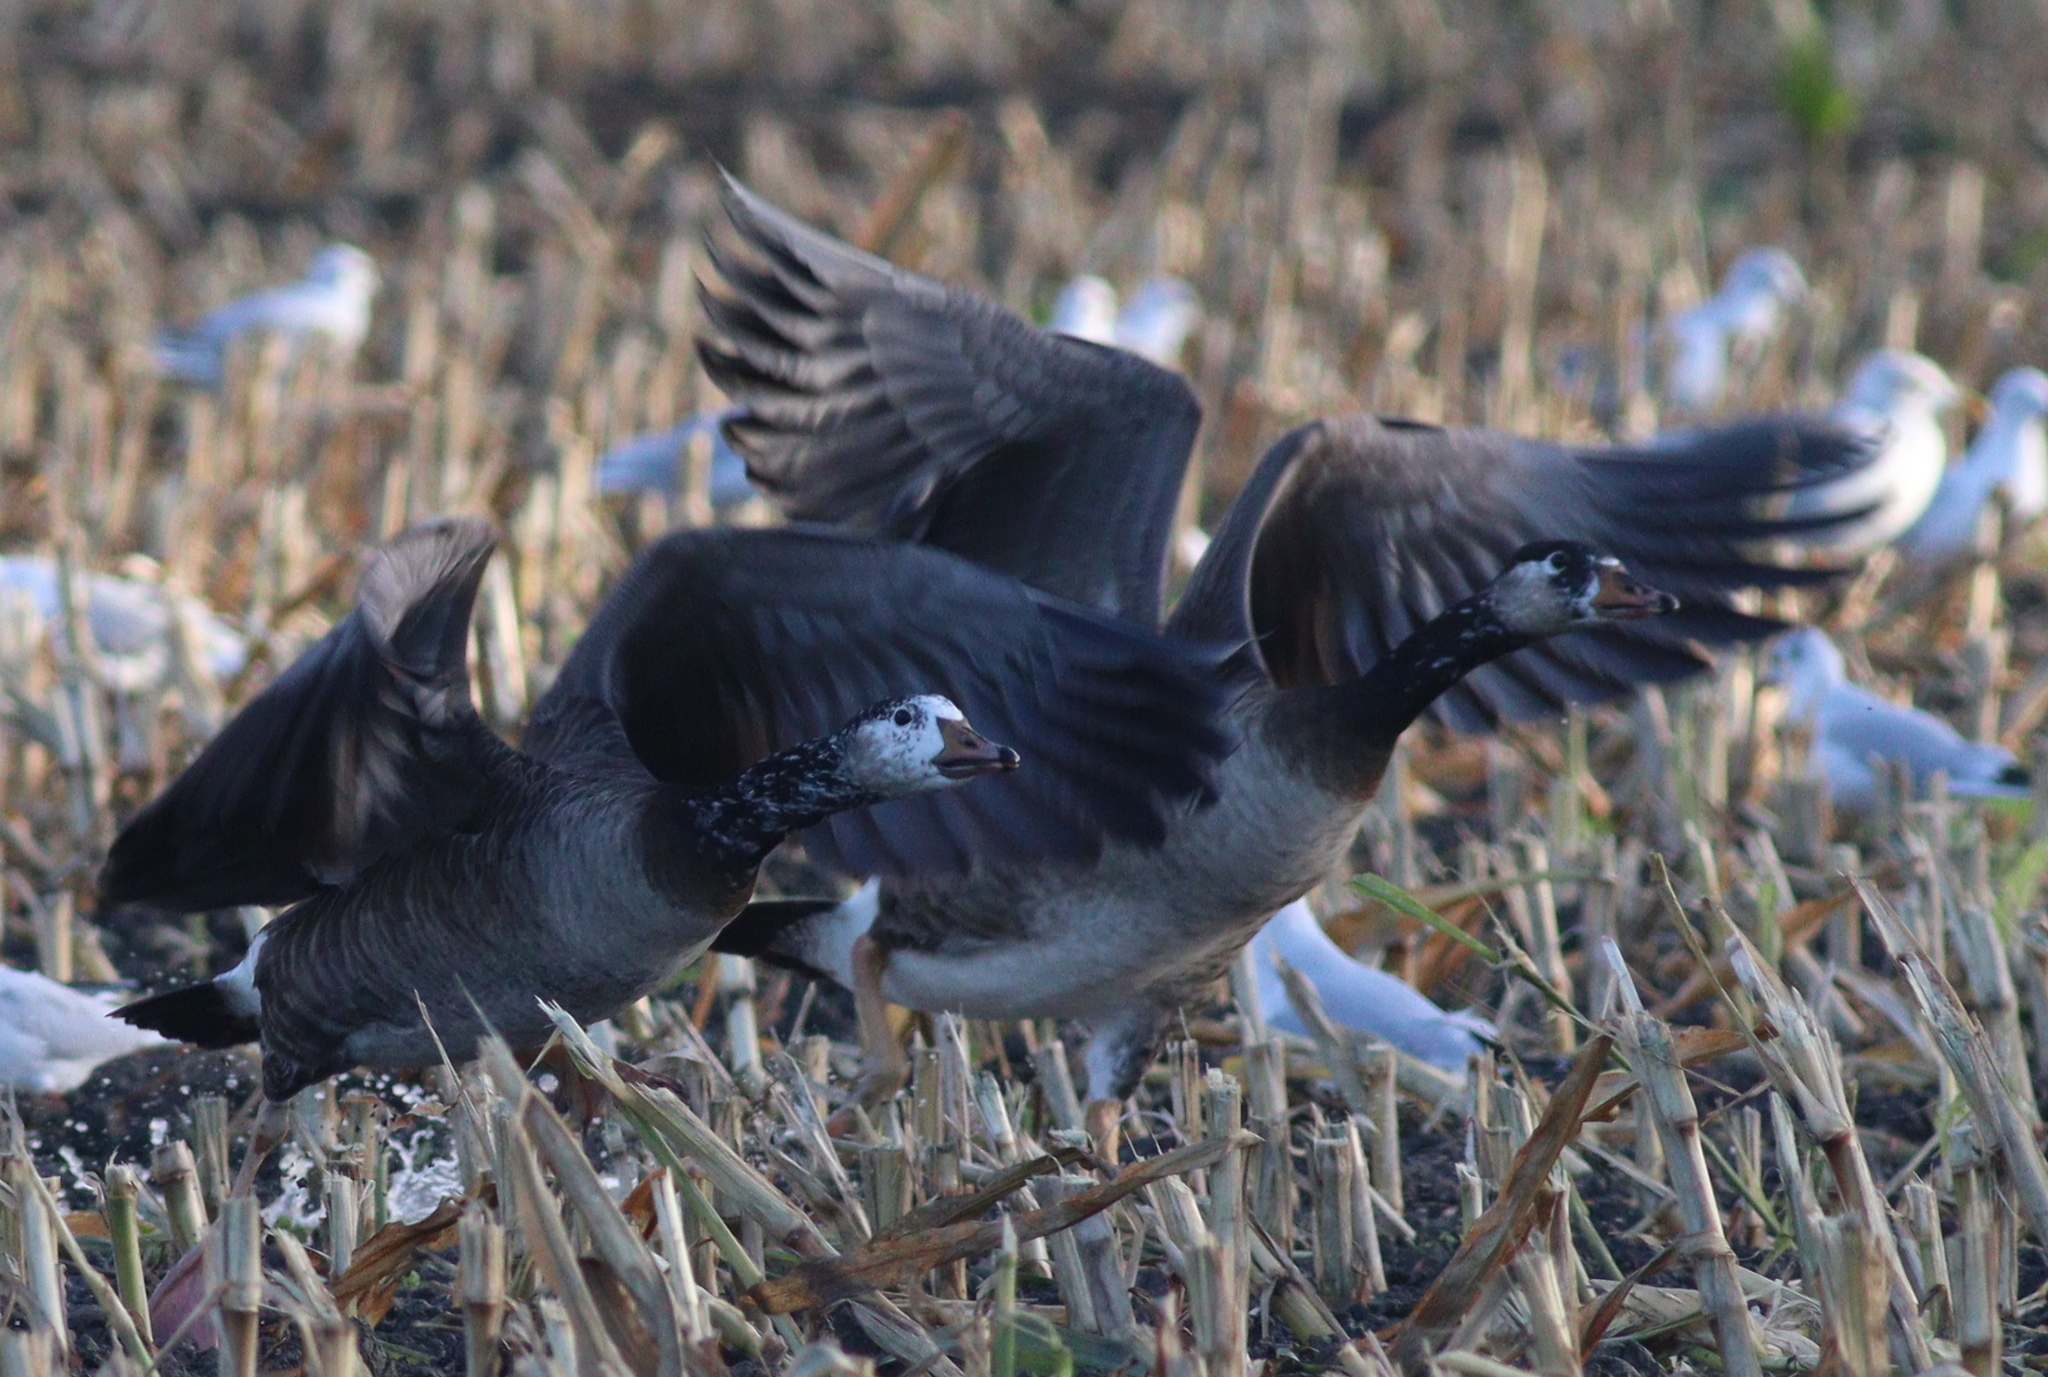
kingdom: Animalia
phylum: Chordata
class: Aves
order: Anseriformes
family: Anatidae
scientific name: Anatidae
